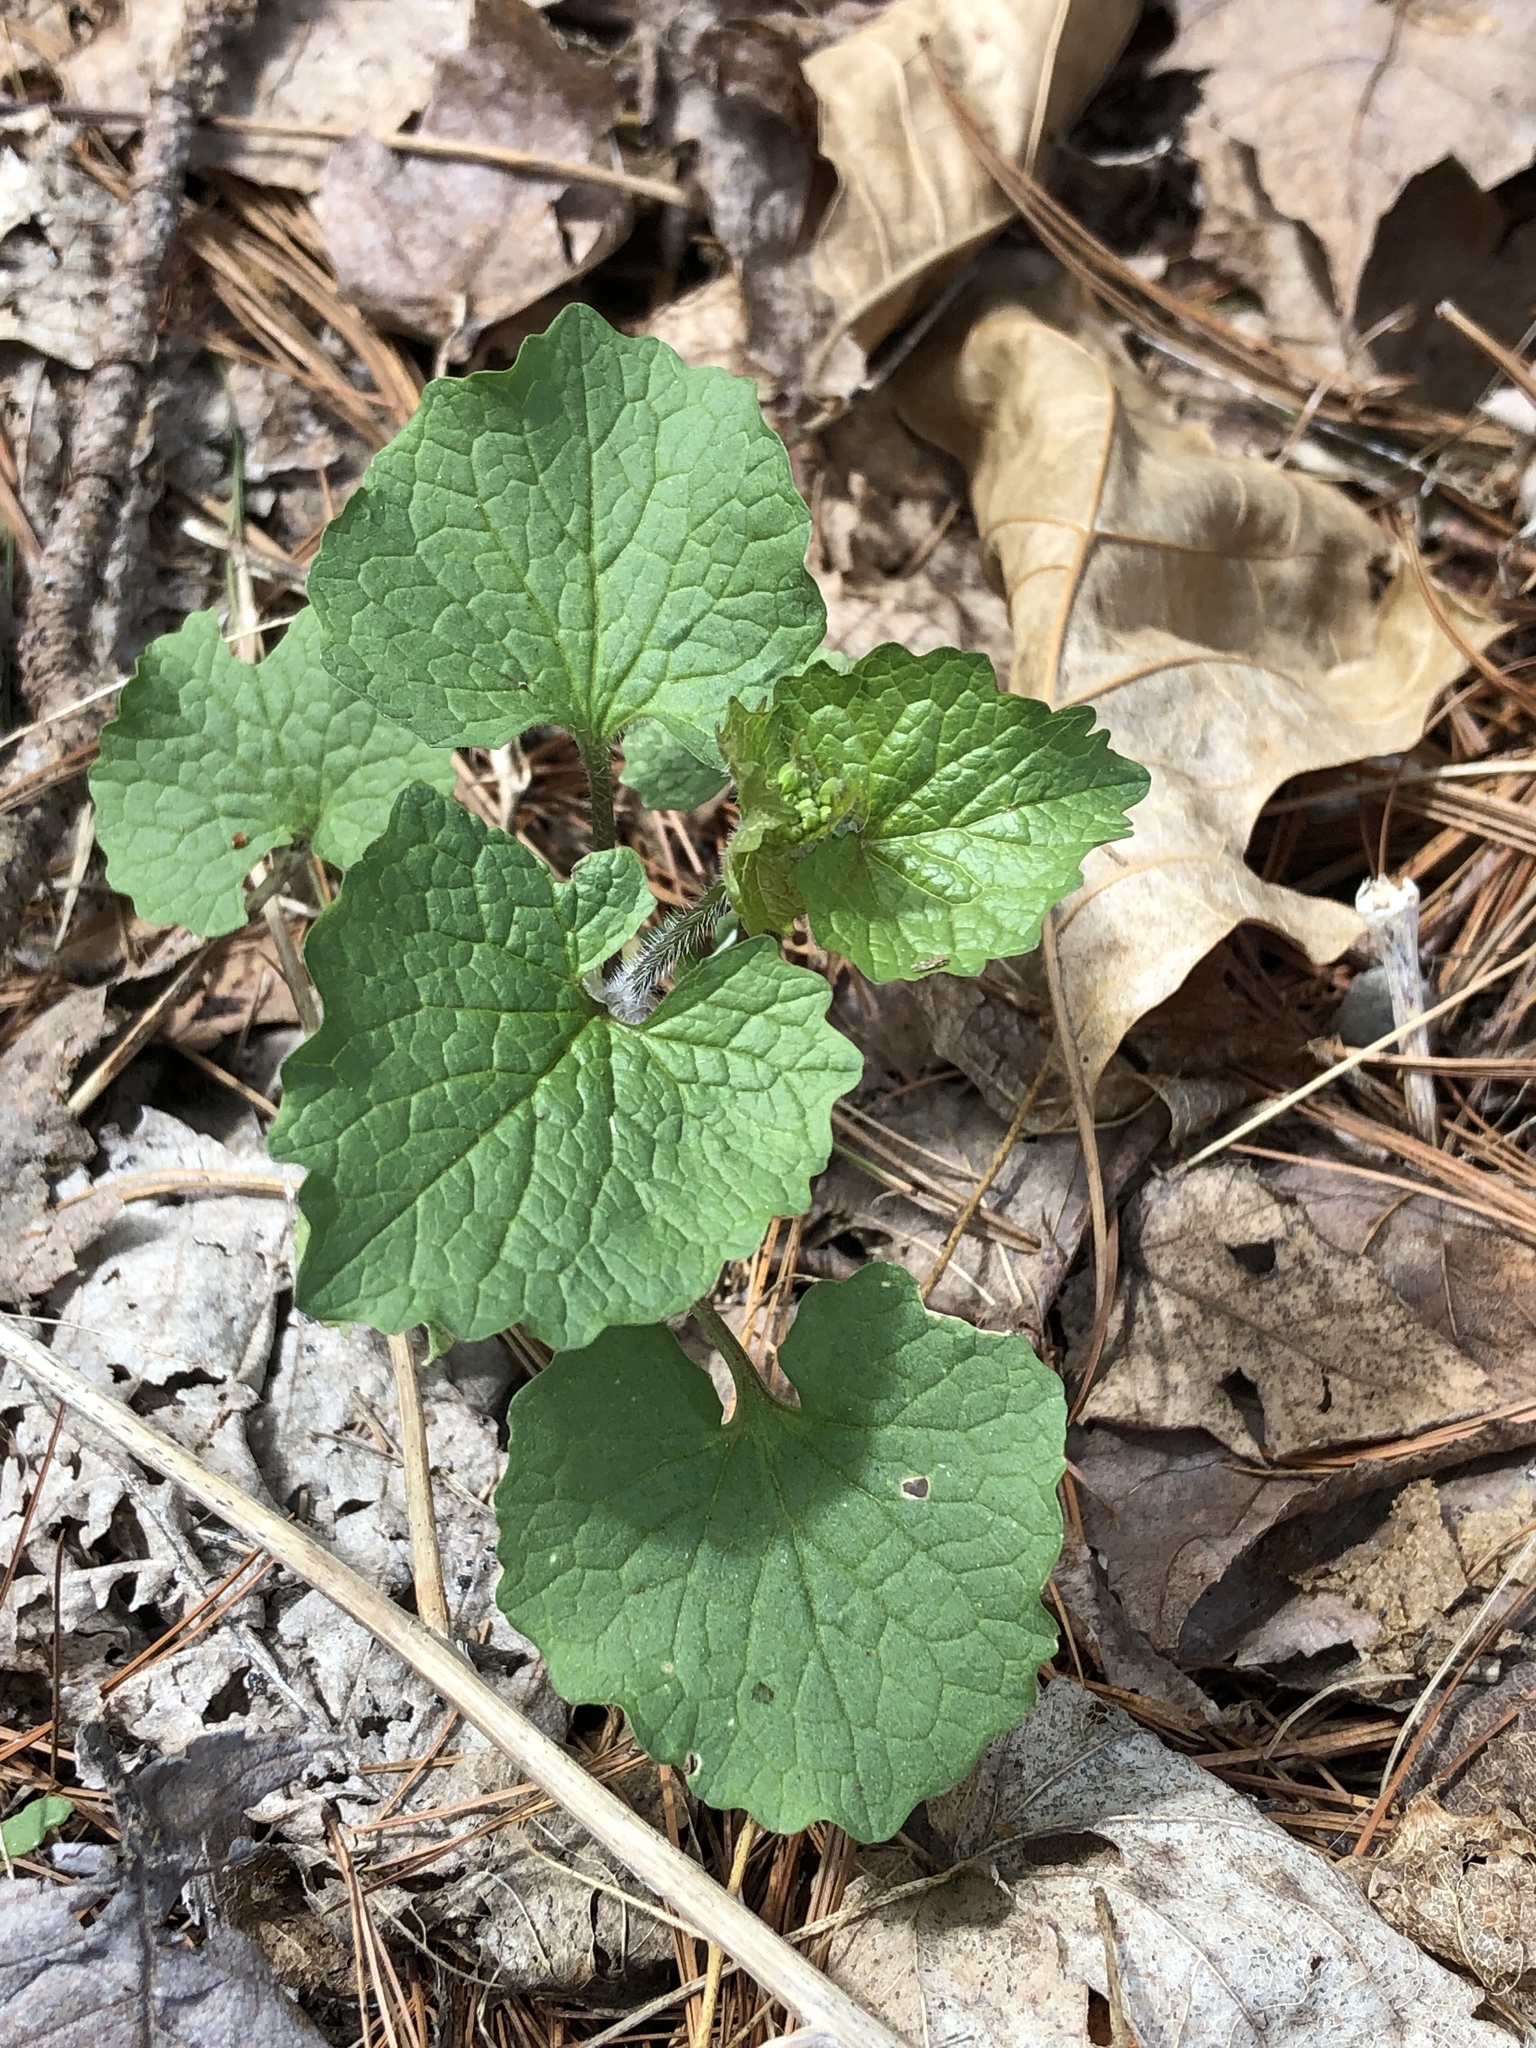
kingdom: Plantae
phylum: Tracheophyta
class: Magnoliopsida
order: Brassicales
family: Brassicaceae
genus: Alliaria
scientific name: Alliaria petiolata
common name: Garlic mustard
